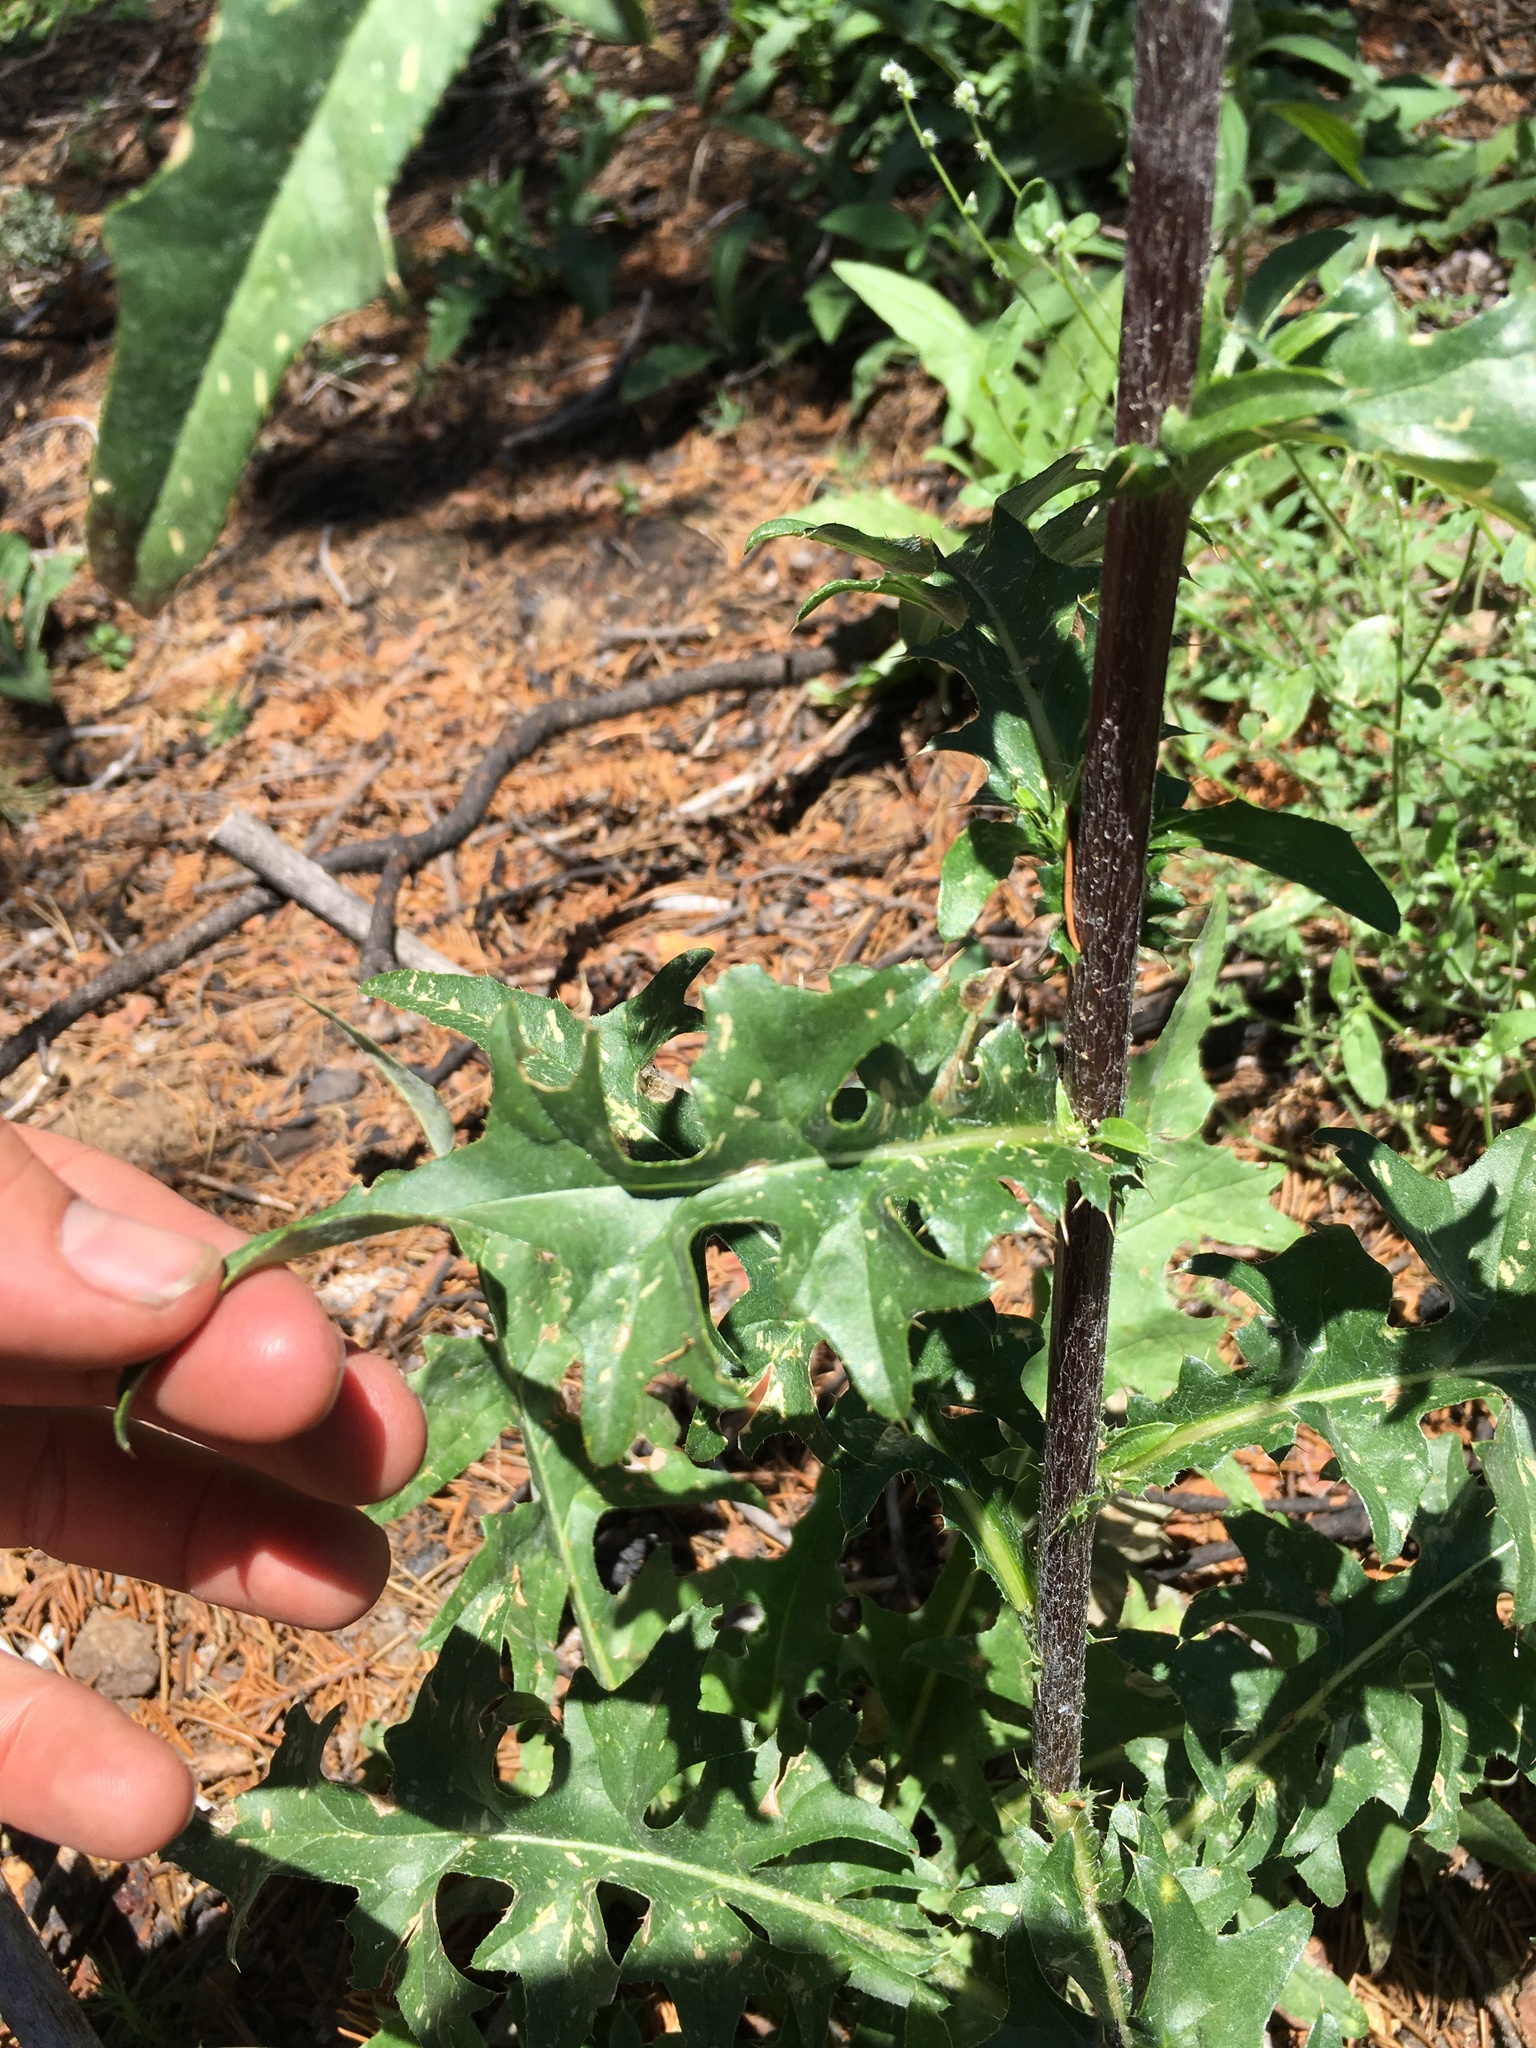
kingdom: Plantae
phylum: Tracheophyta
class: Magnoliopsida
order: Asterales
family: Asteraceae
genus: Cirsium
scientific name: Cirsium andersonii
